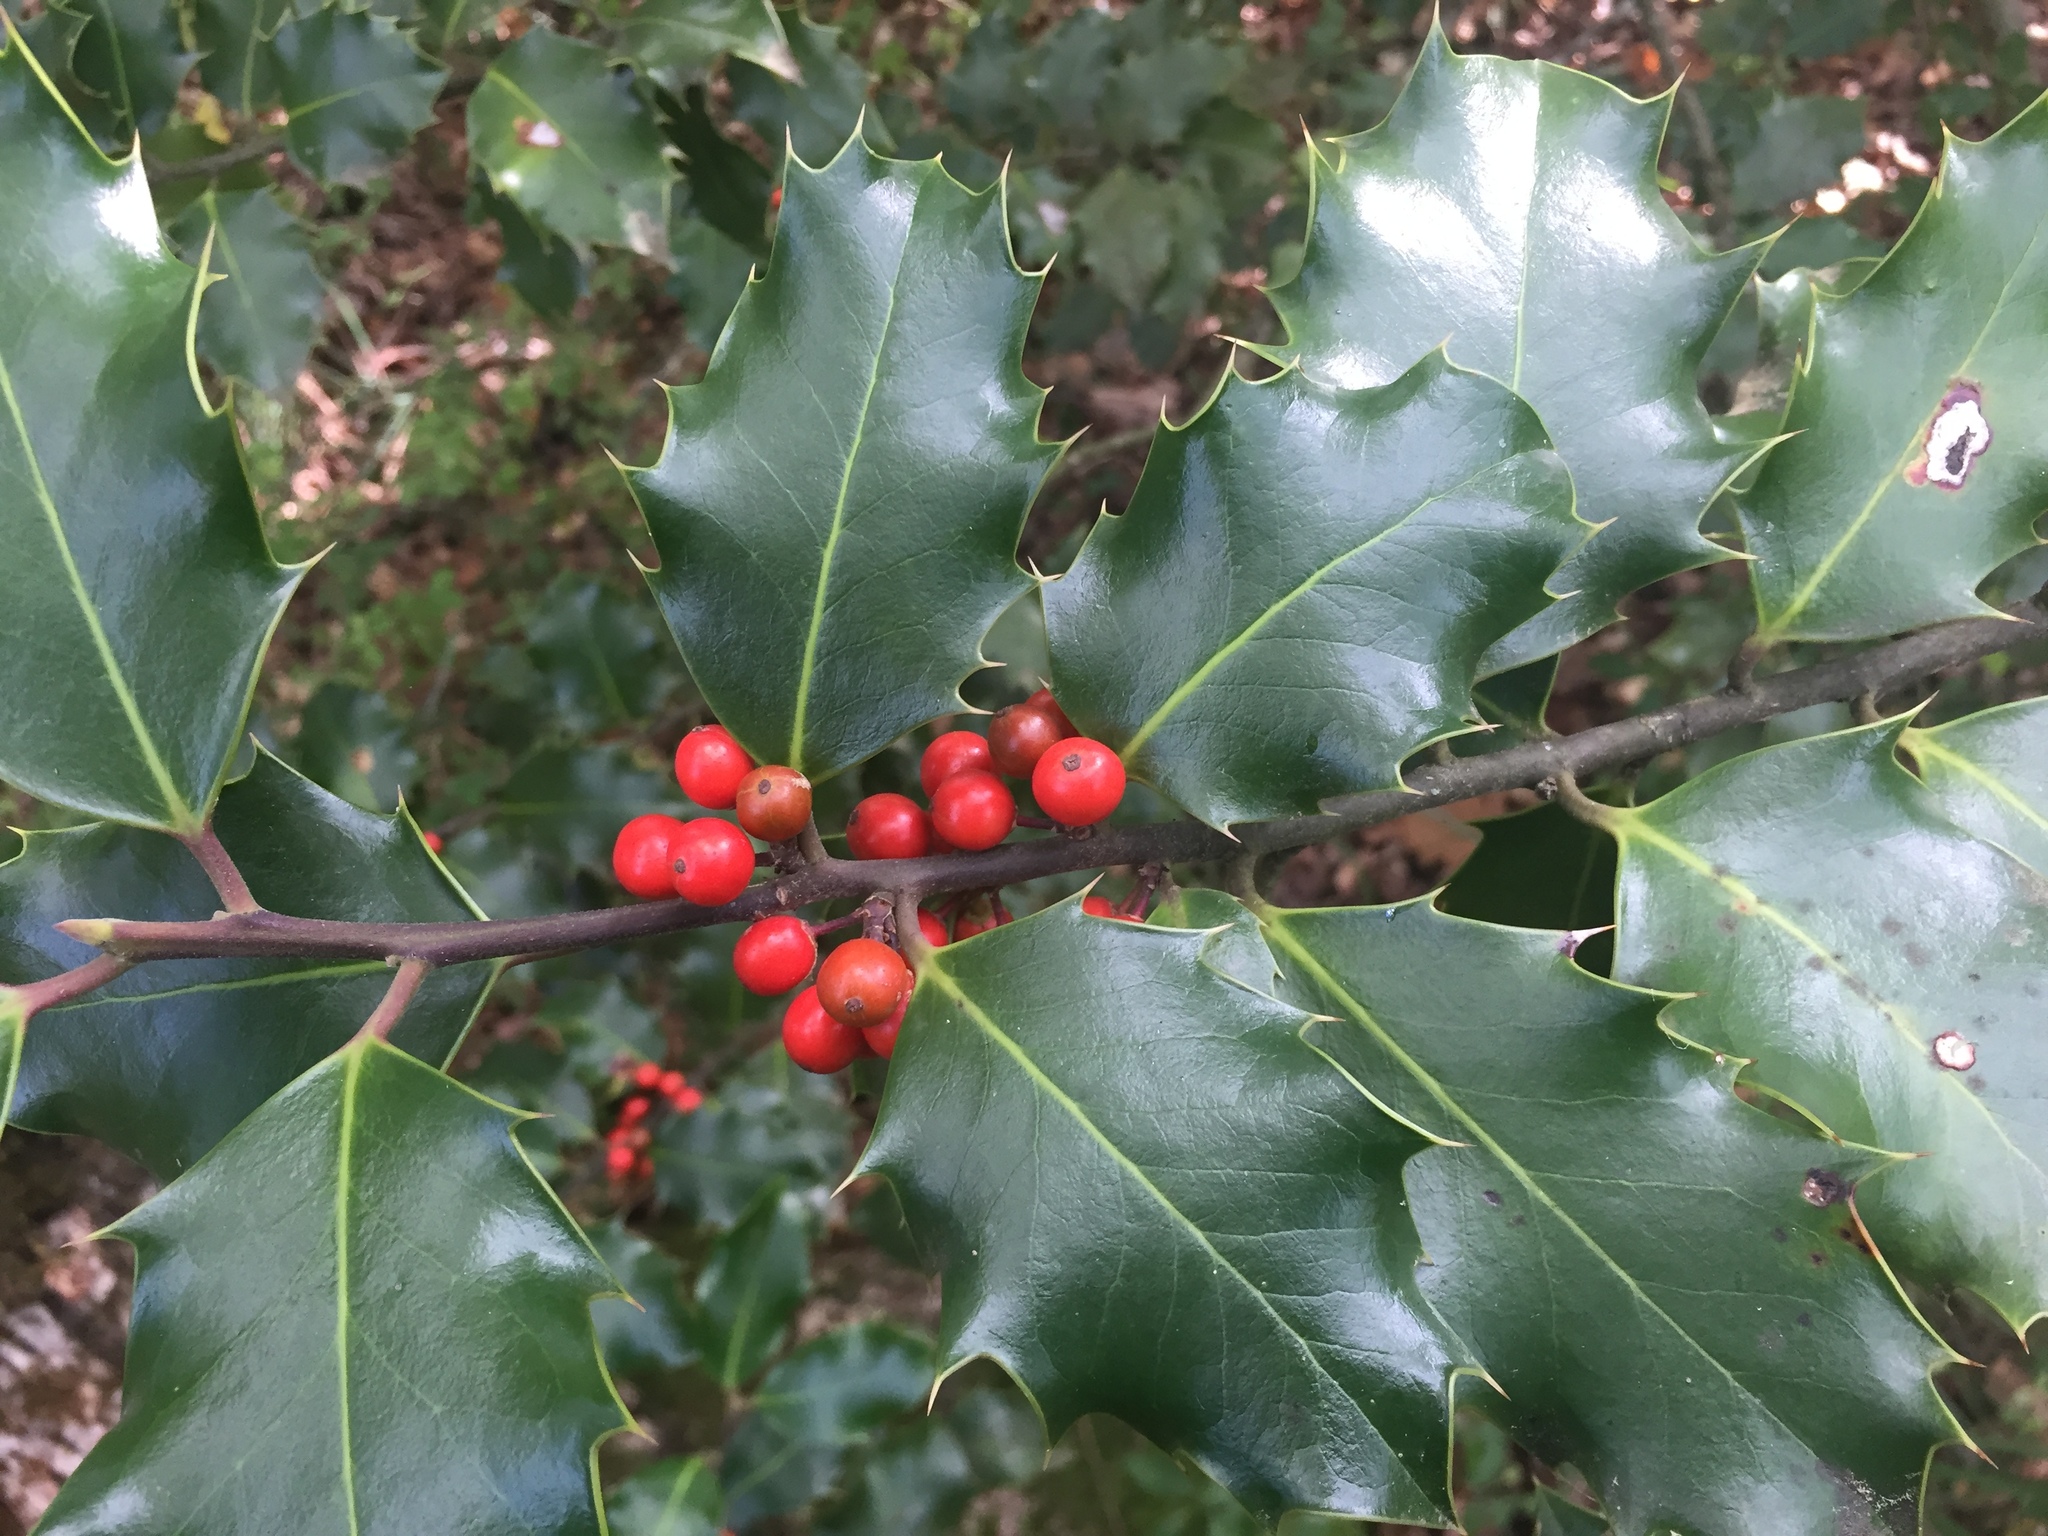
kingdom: Plantae
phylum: Tracheophyta
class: Magnoliopsida
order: Aquifoliales
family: Aquifoliaceae
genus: Ilex
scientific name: Ilex aquifolium
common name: English holly
